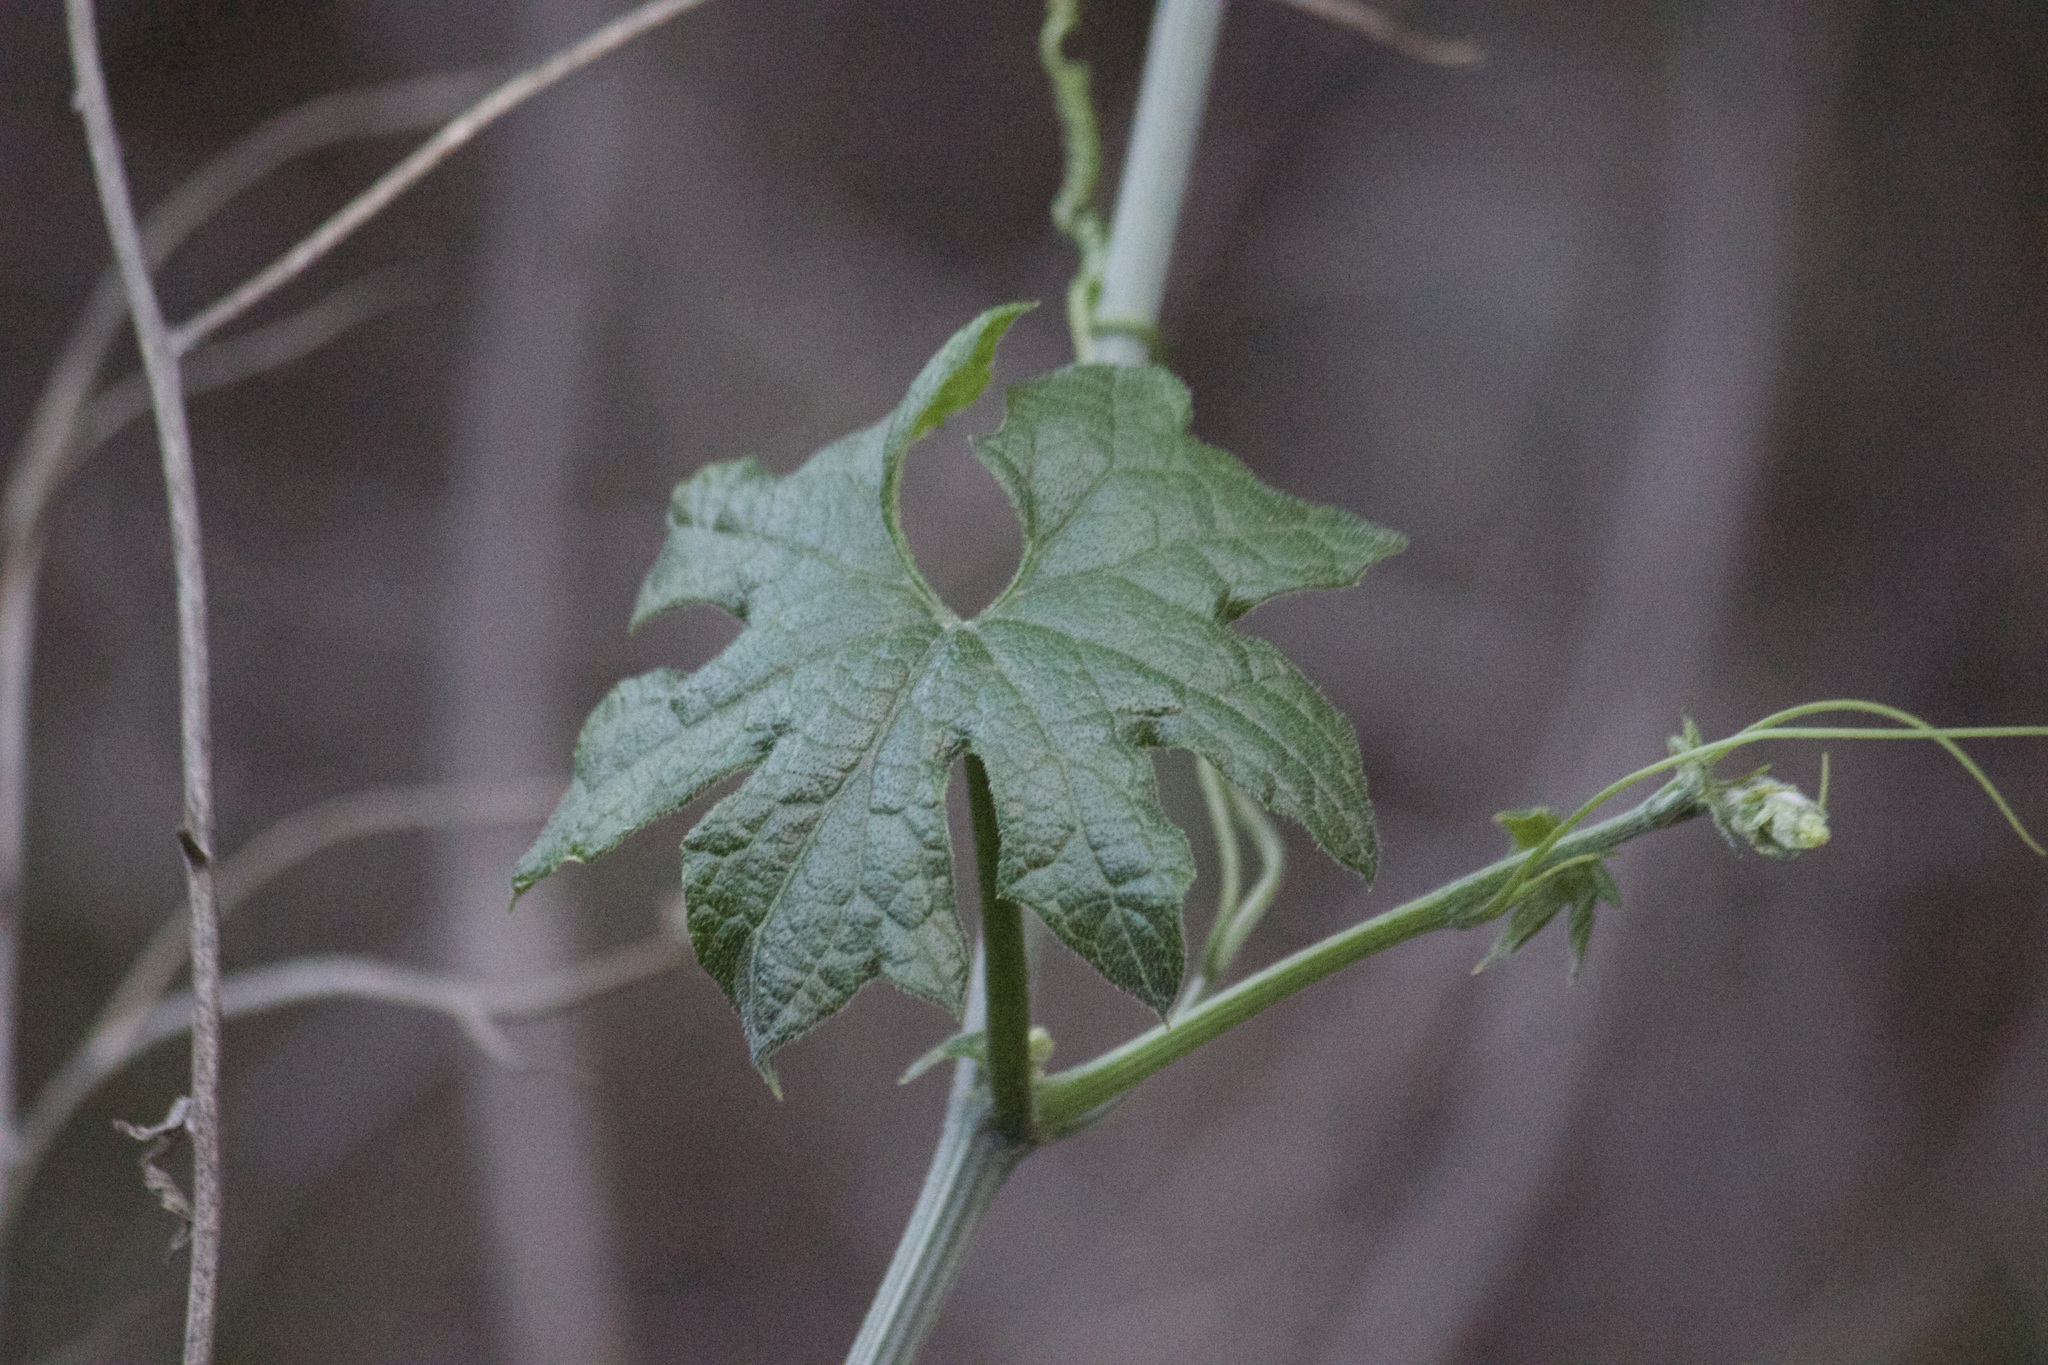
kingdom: Plantae
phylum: Tracheophyta
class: Magnoliopsida
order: Cucurbitales
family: Cucurbitaceae
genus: Marah
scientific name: Marah macrocarpa
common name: Cucamonga manroot
